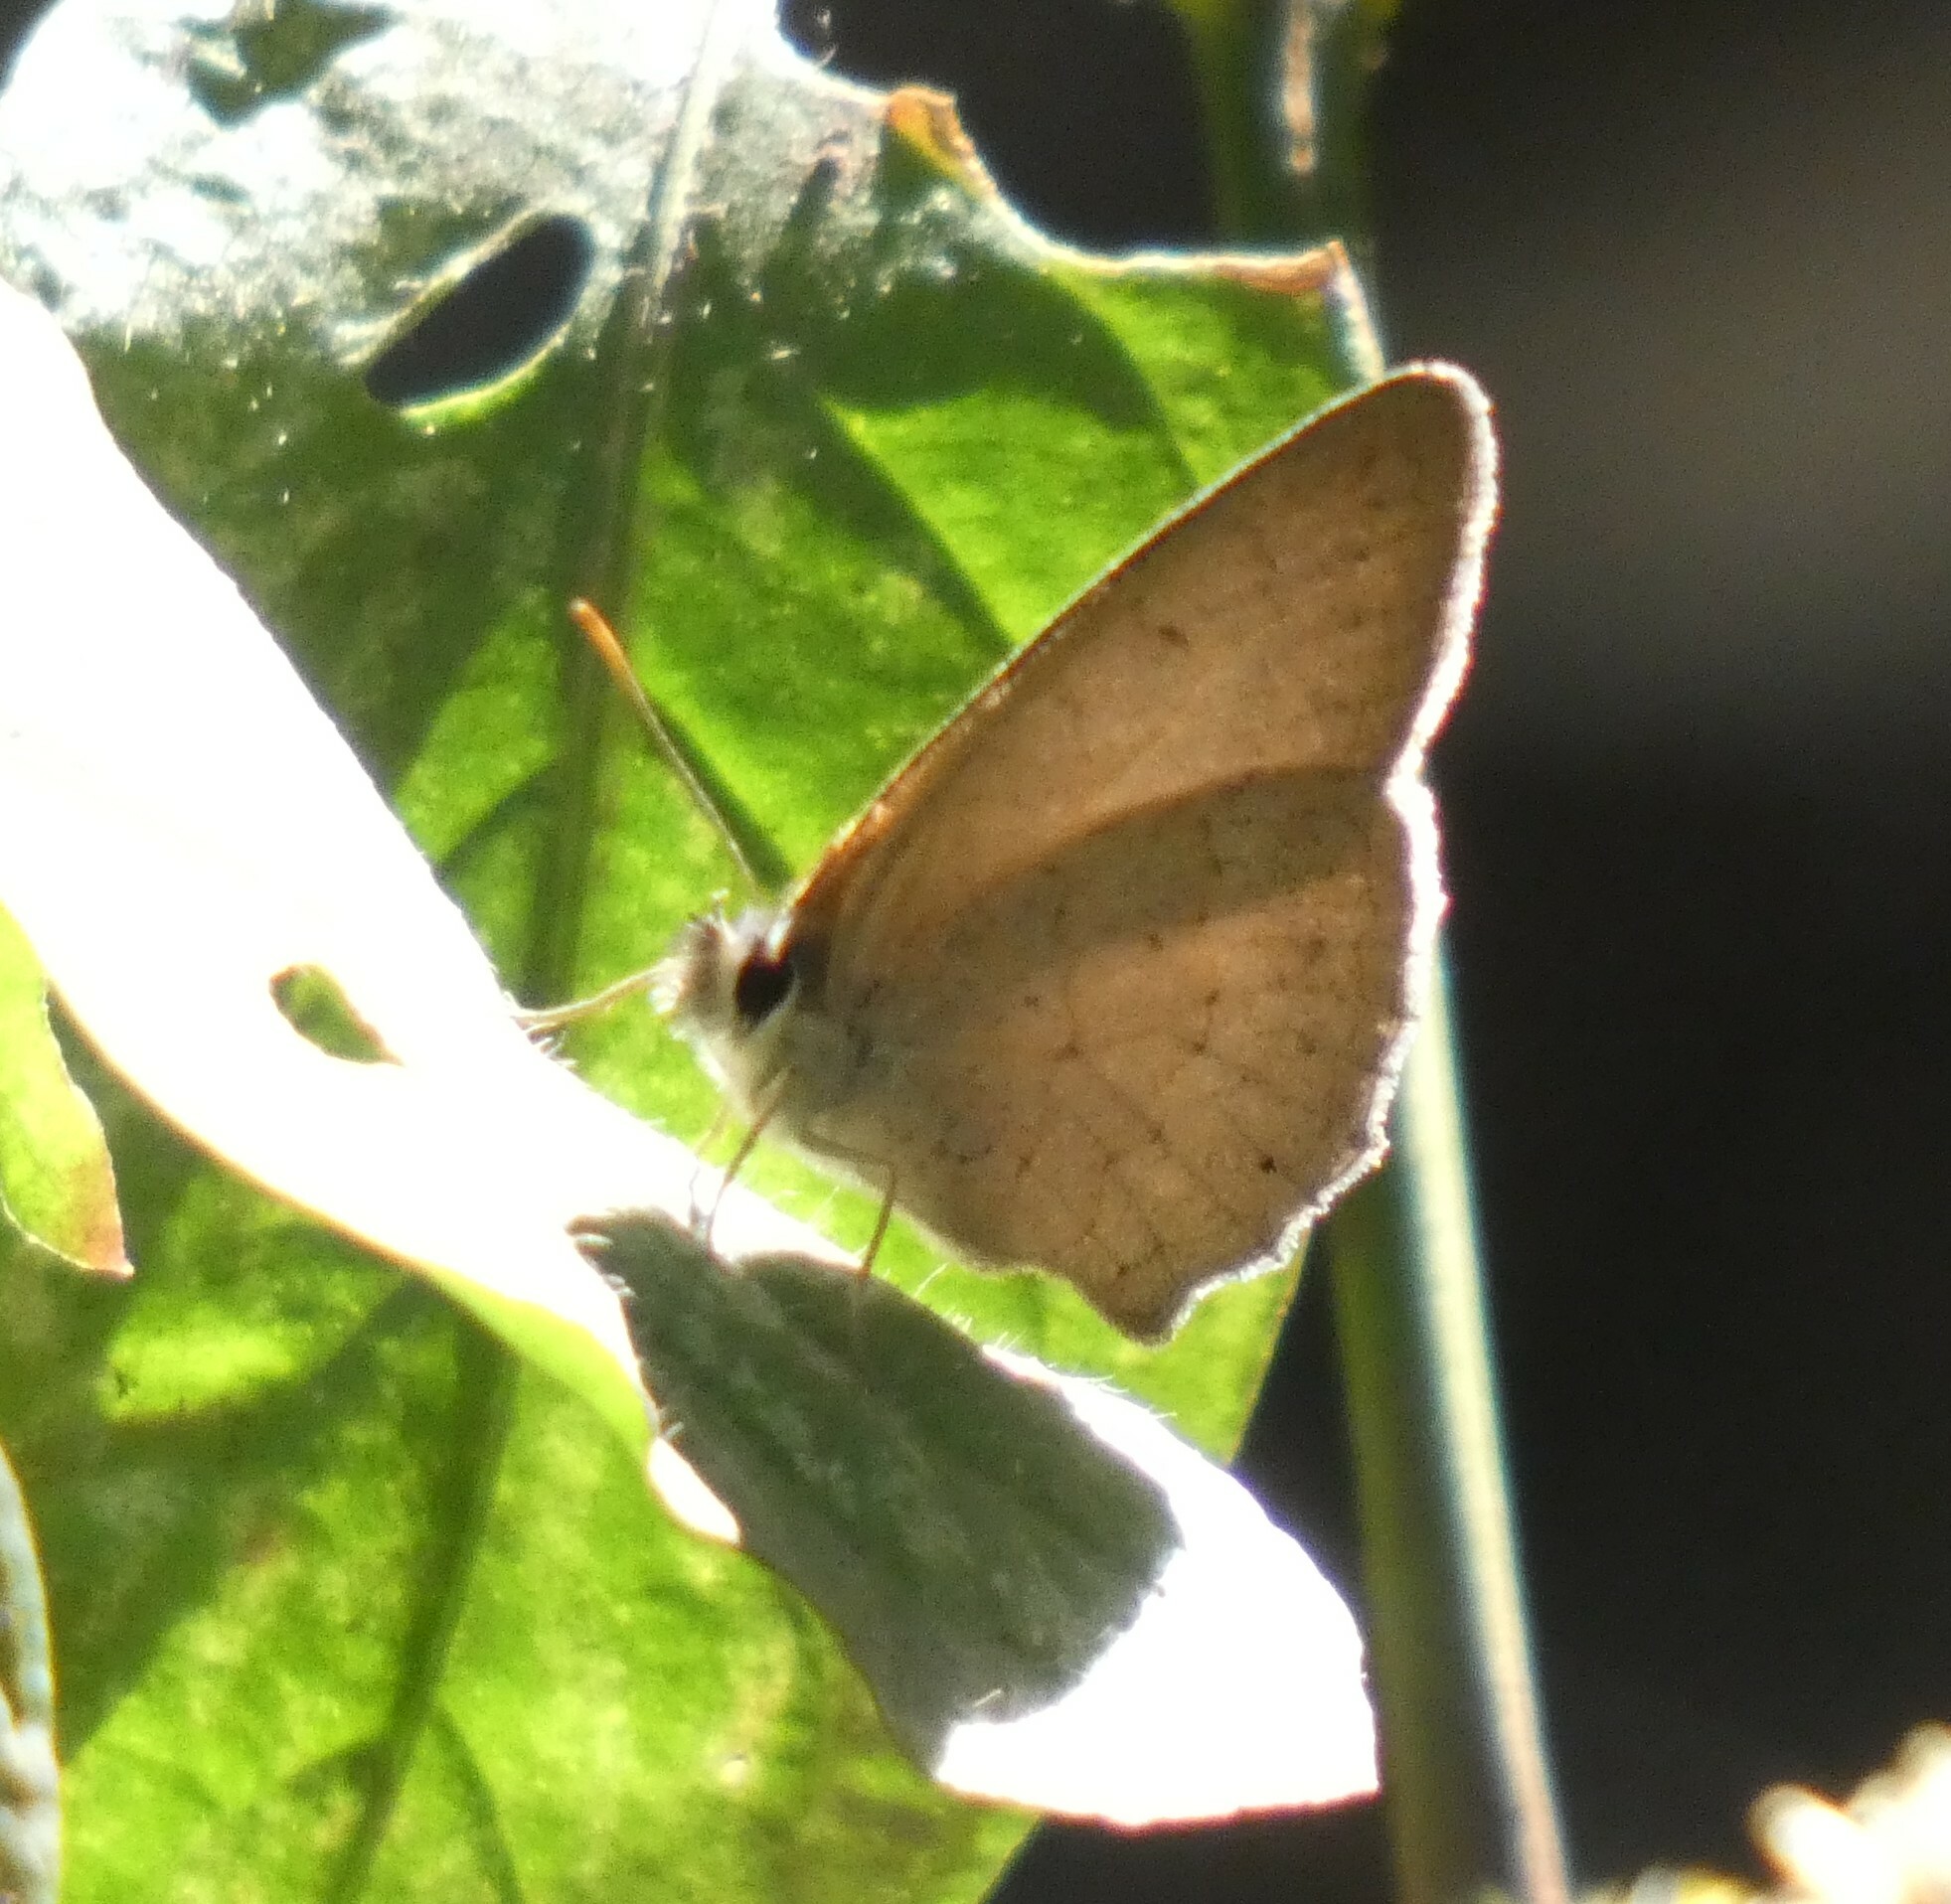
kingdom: Animalia
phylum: Arthropoda
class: Insecta
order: Lepidoptera
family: Nymphalidae
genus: Euptychia
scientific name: Euptychia Cissia eous
